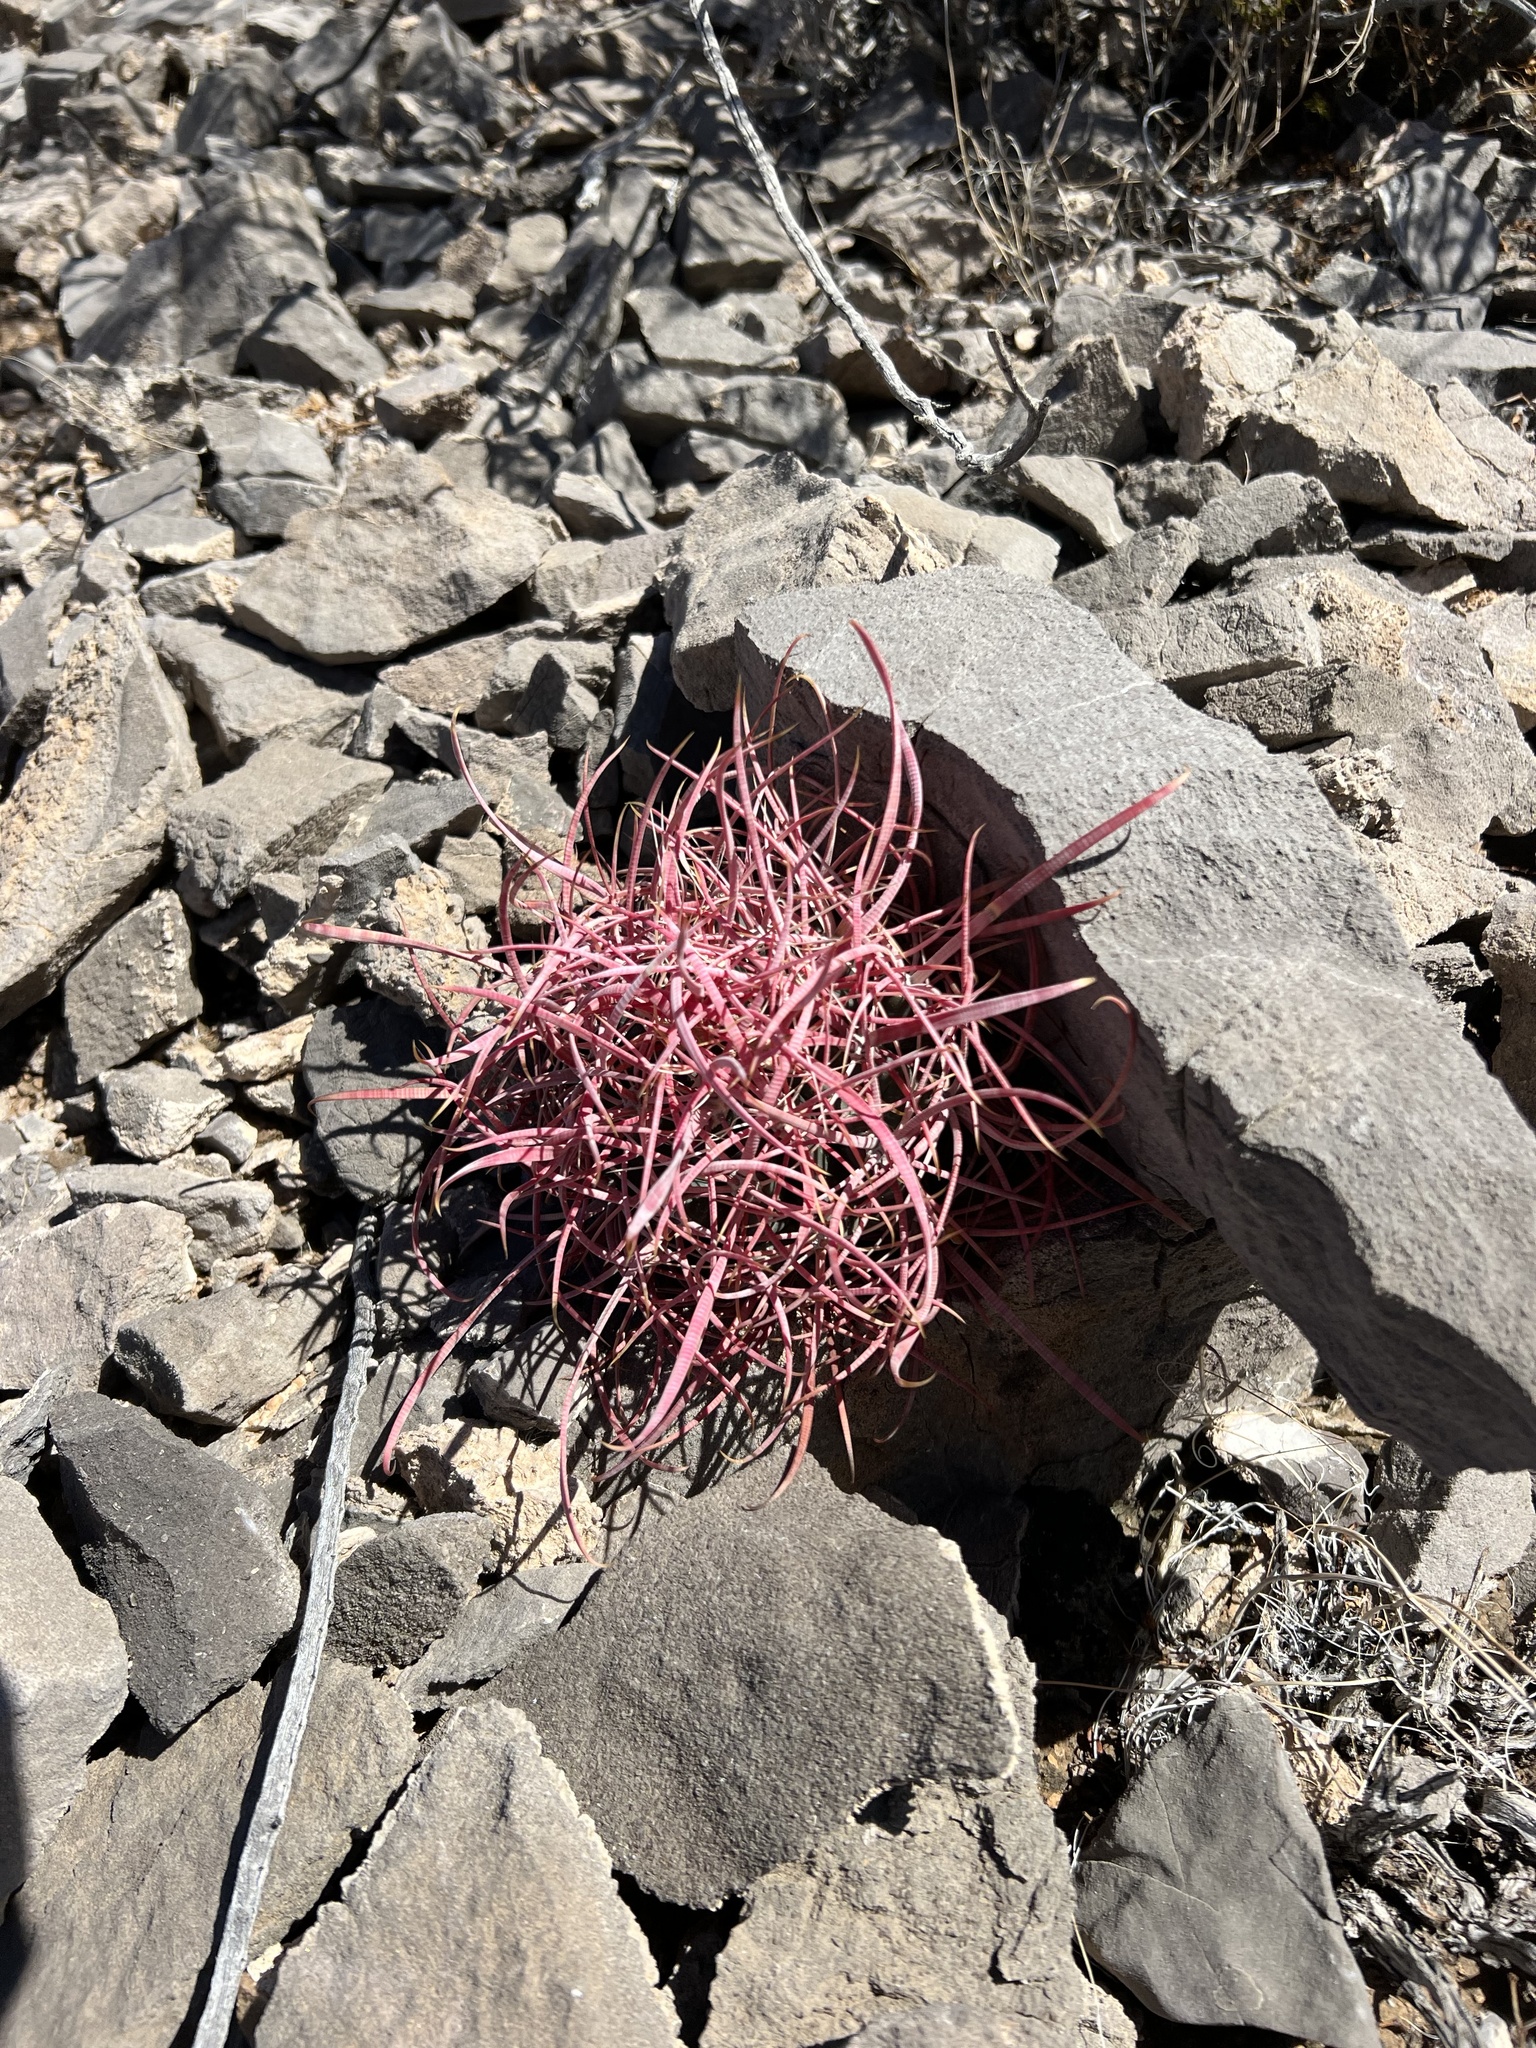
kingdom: Plantae
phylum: Tracheophyta
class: Magnoliopsida
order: Caryophyllales
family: Cactaceae
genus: Ferocactus
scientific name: Ferocactus cylindraceus
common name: California barrel cactus
